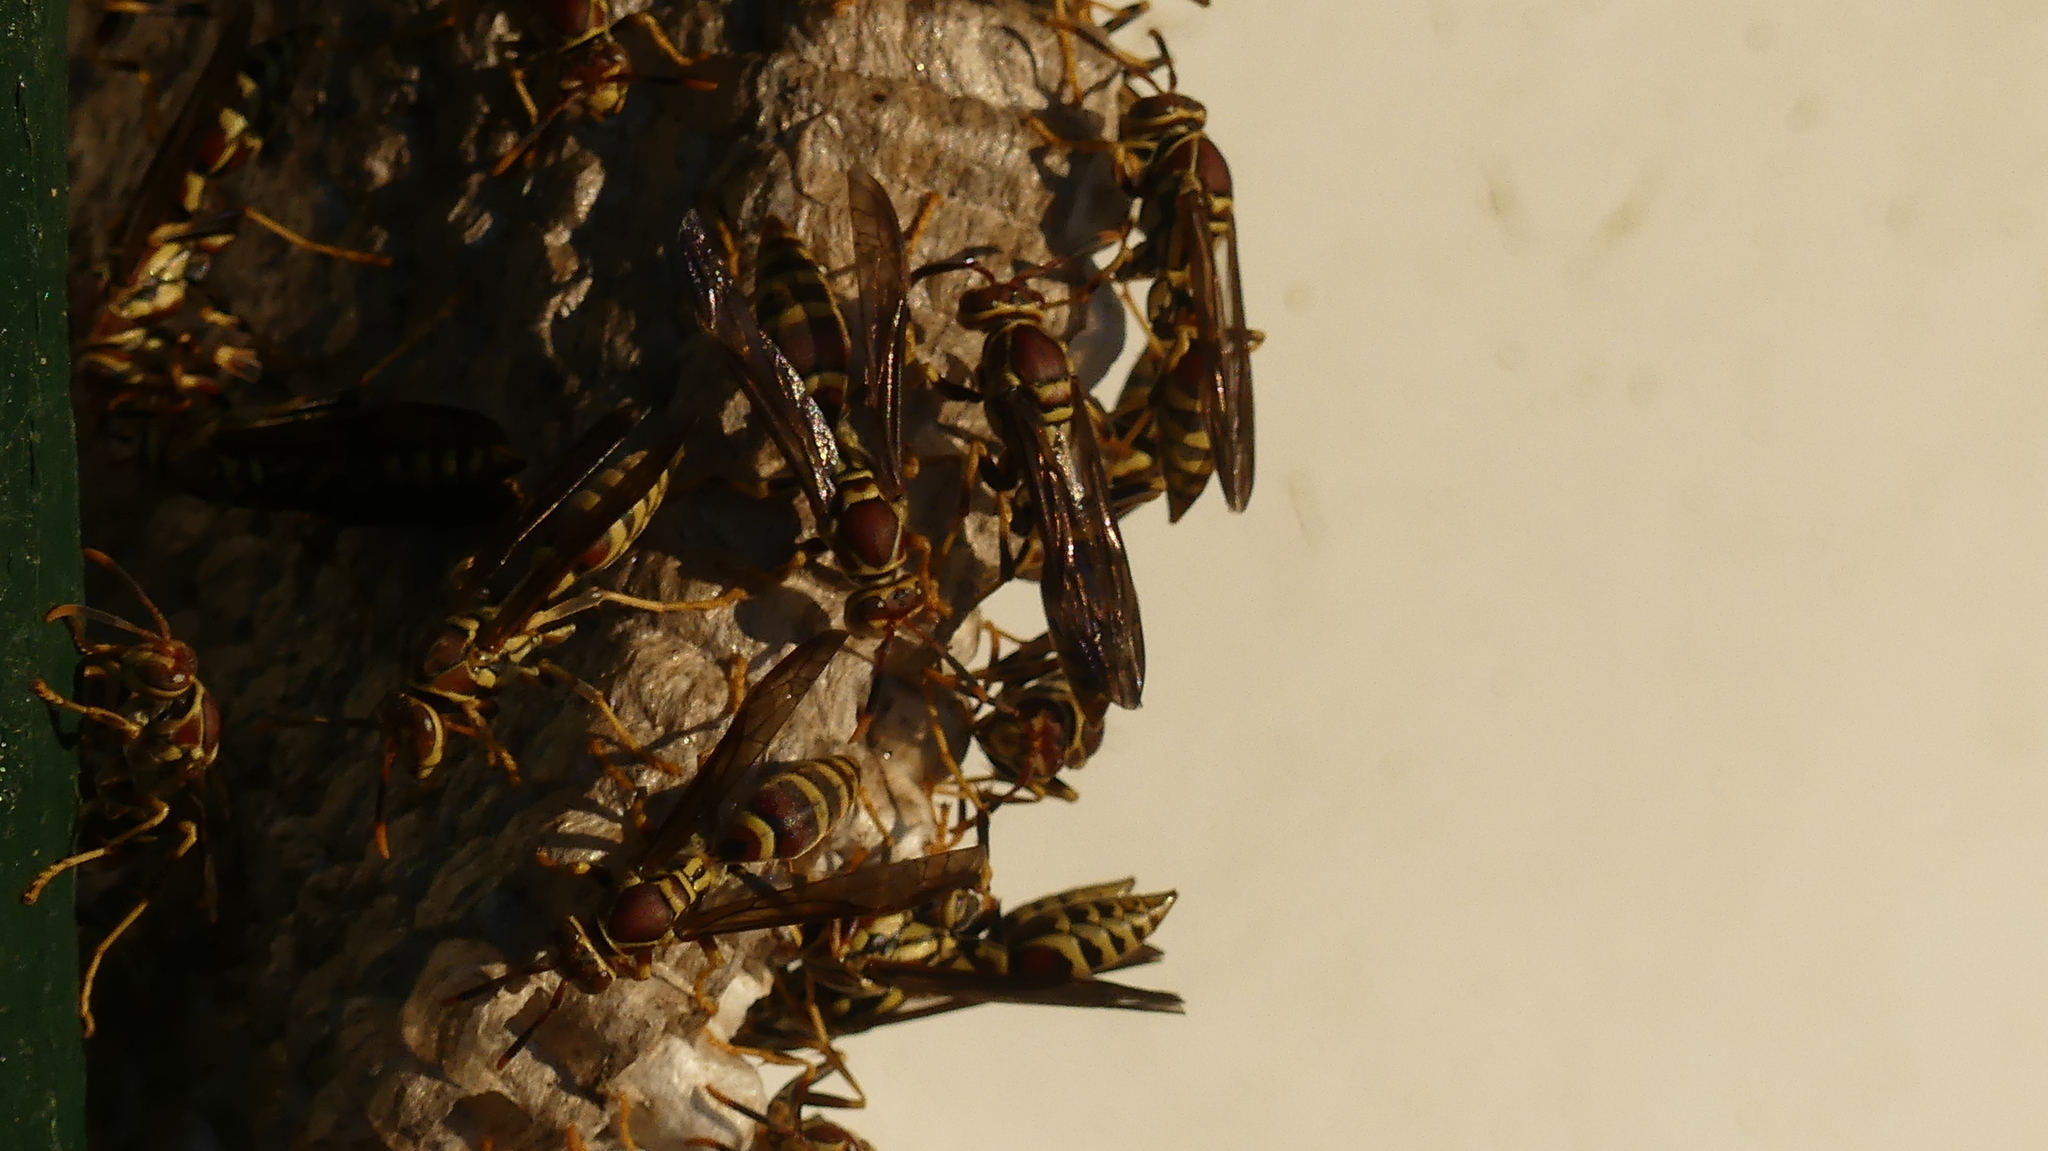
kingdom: Animalia
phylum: Arthropoda
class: Insecta
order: Hymenoptera
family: Eumenidae
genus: Polistes
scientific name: Polistes exclamans
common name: Paper wasp
